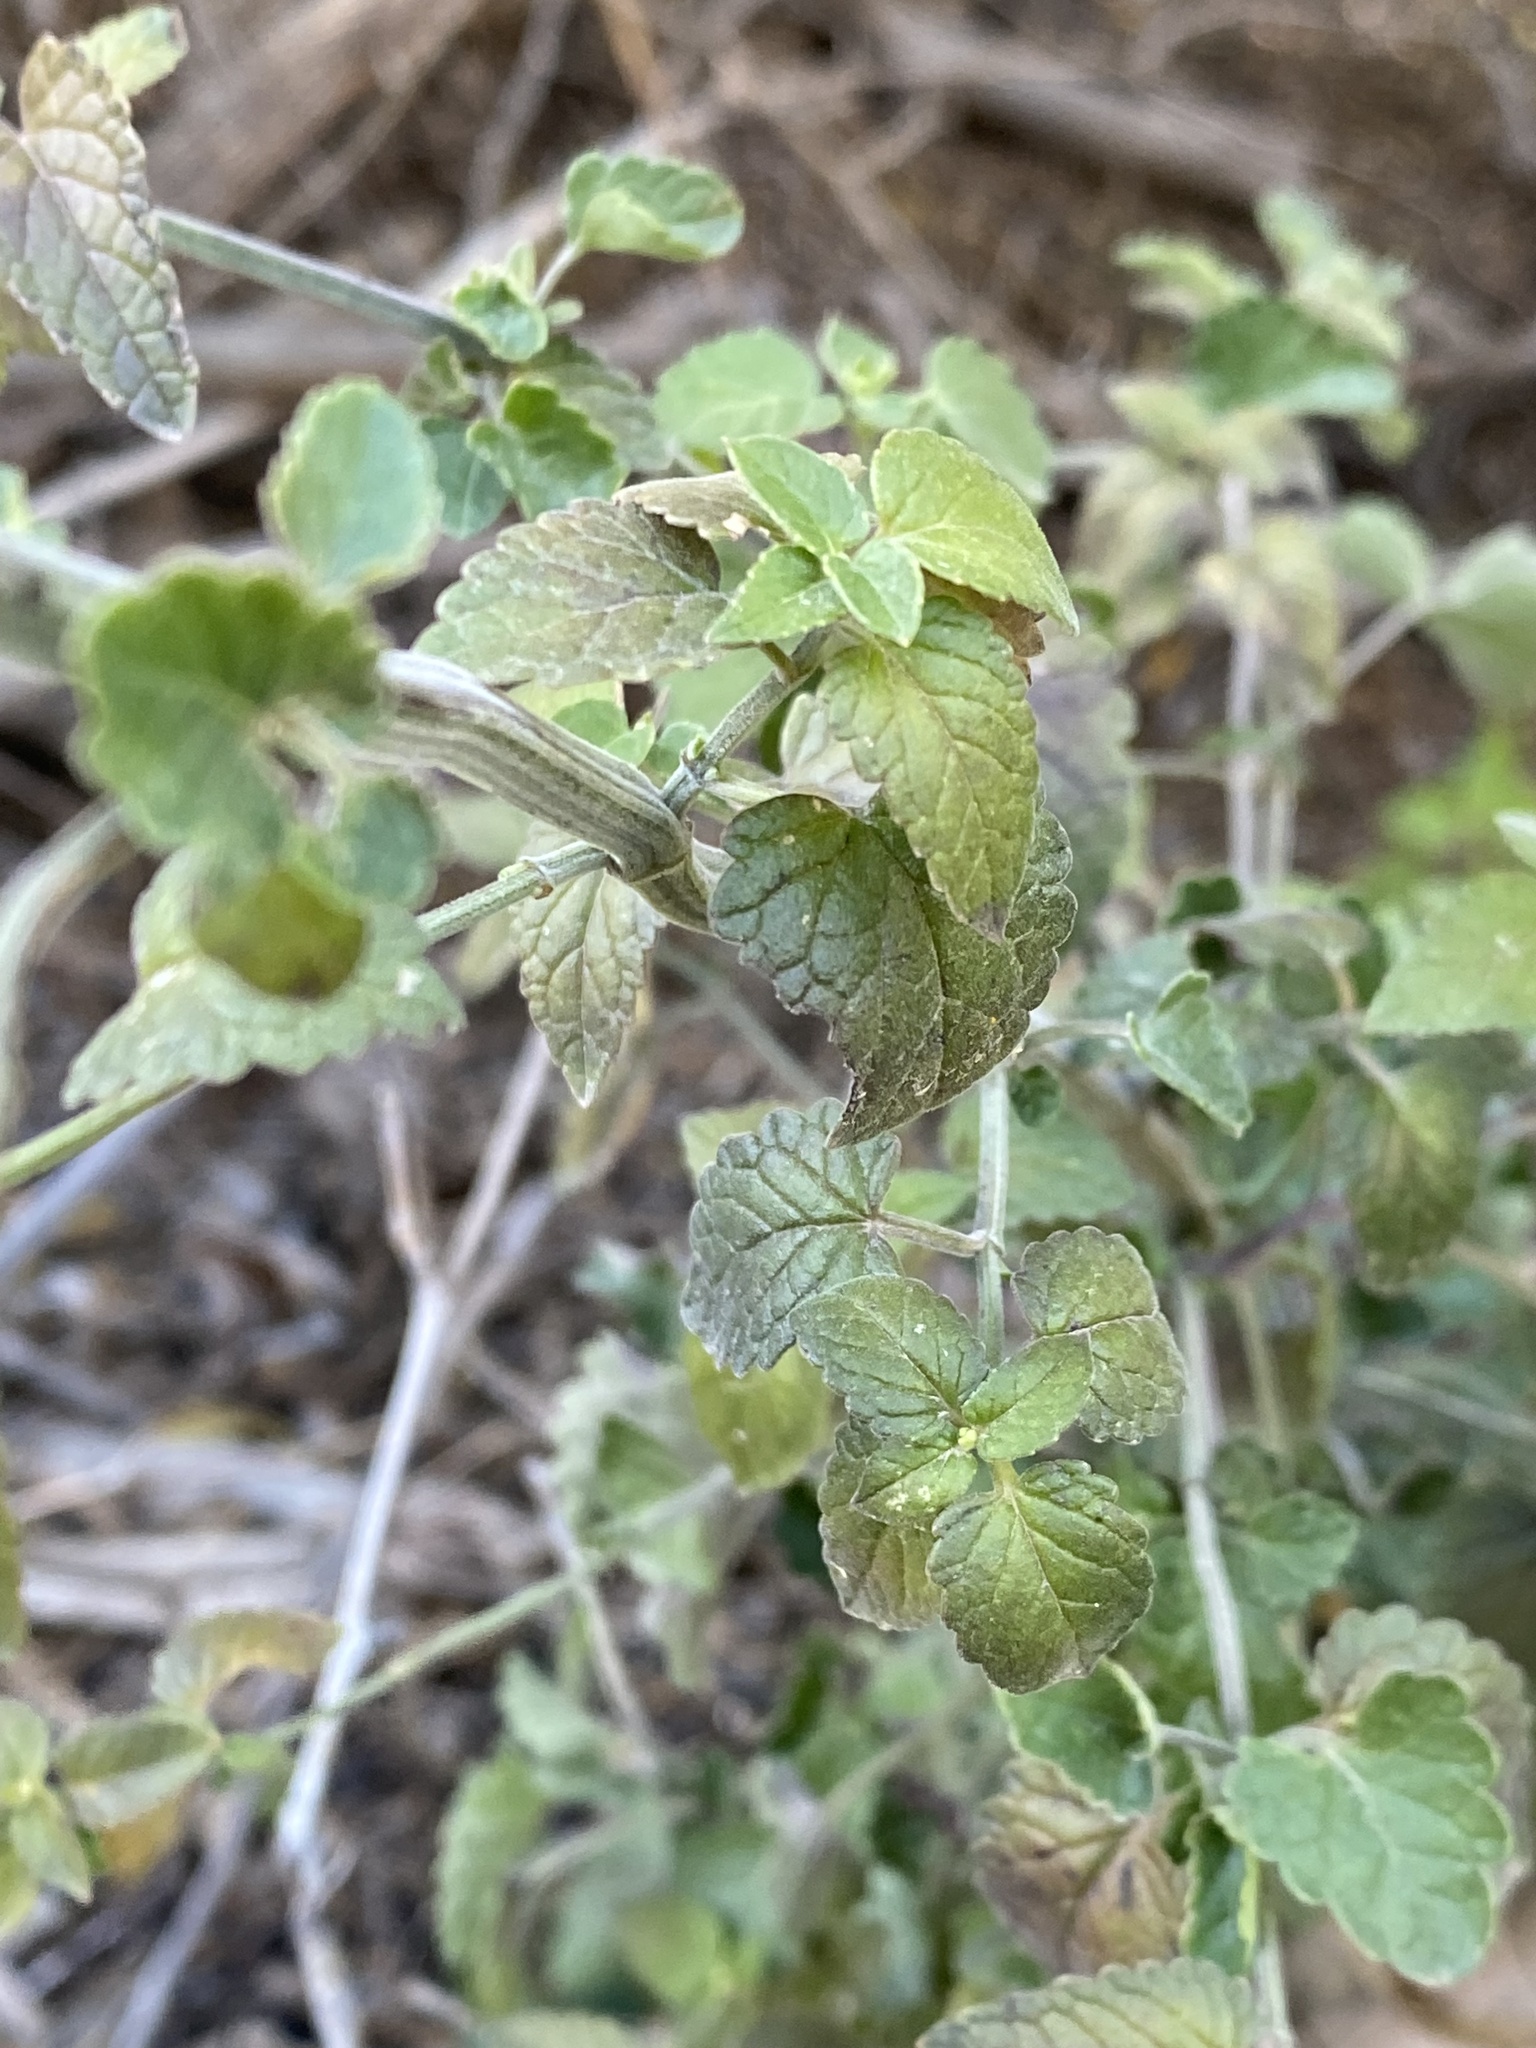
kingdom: Plantae
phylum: Tracheophyta
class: Magnoliopsida
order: Lamiales
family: Lamiaceae
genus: Agastache
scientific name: Agastache wrightii
